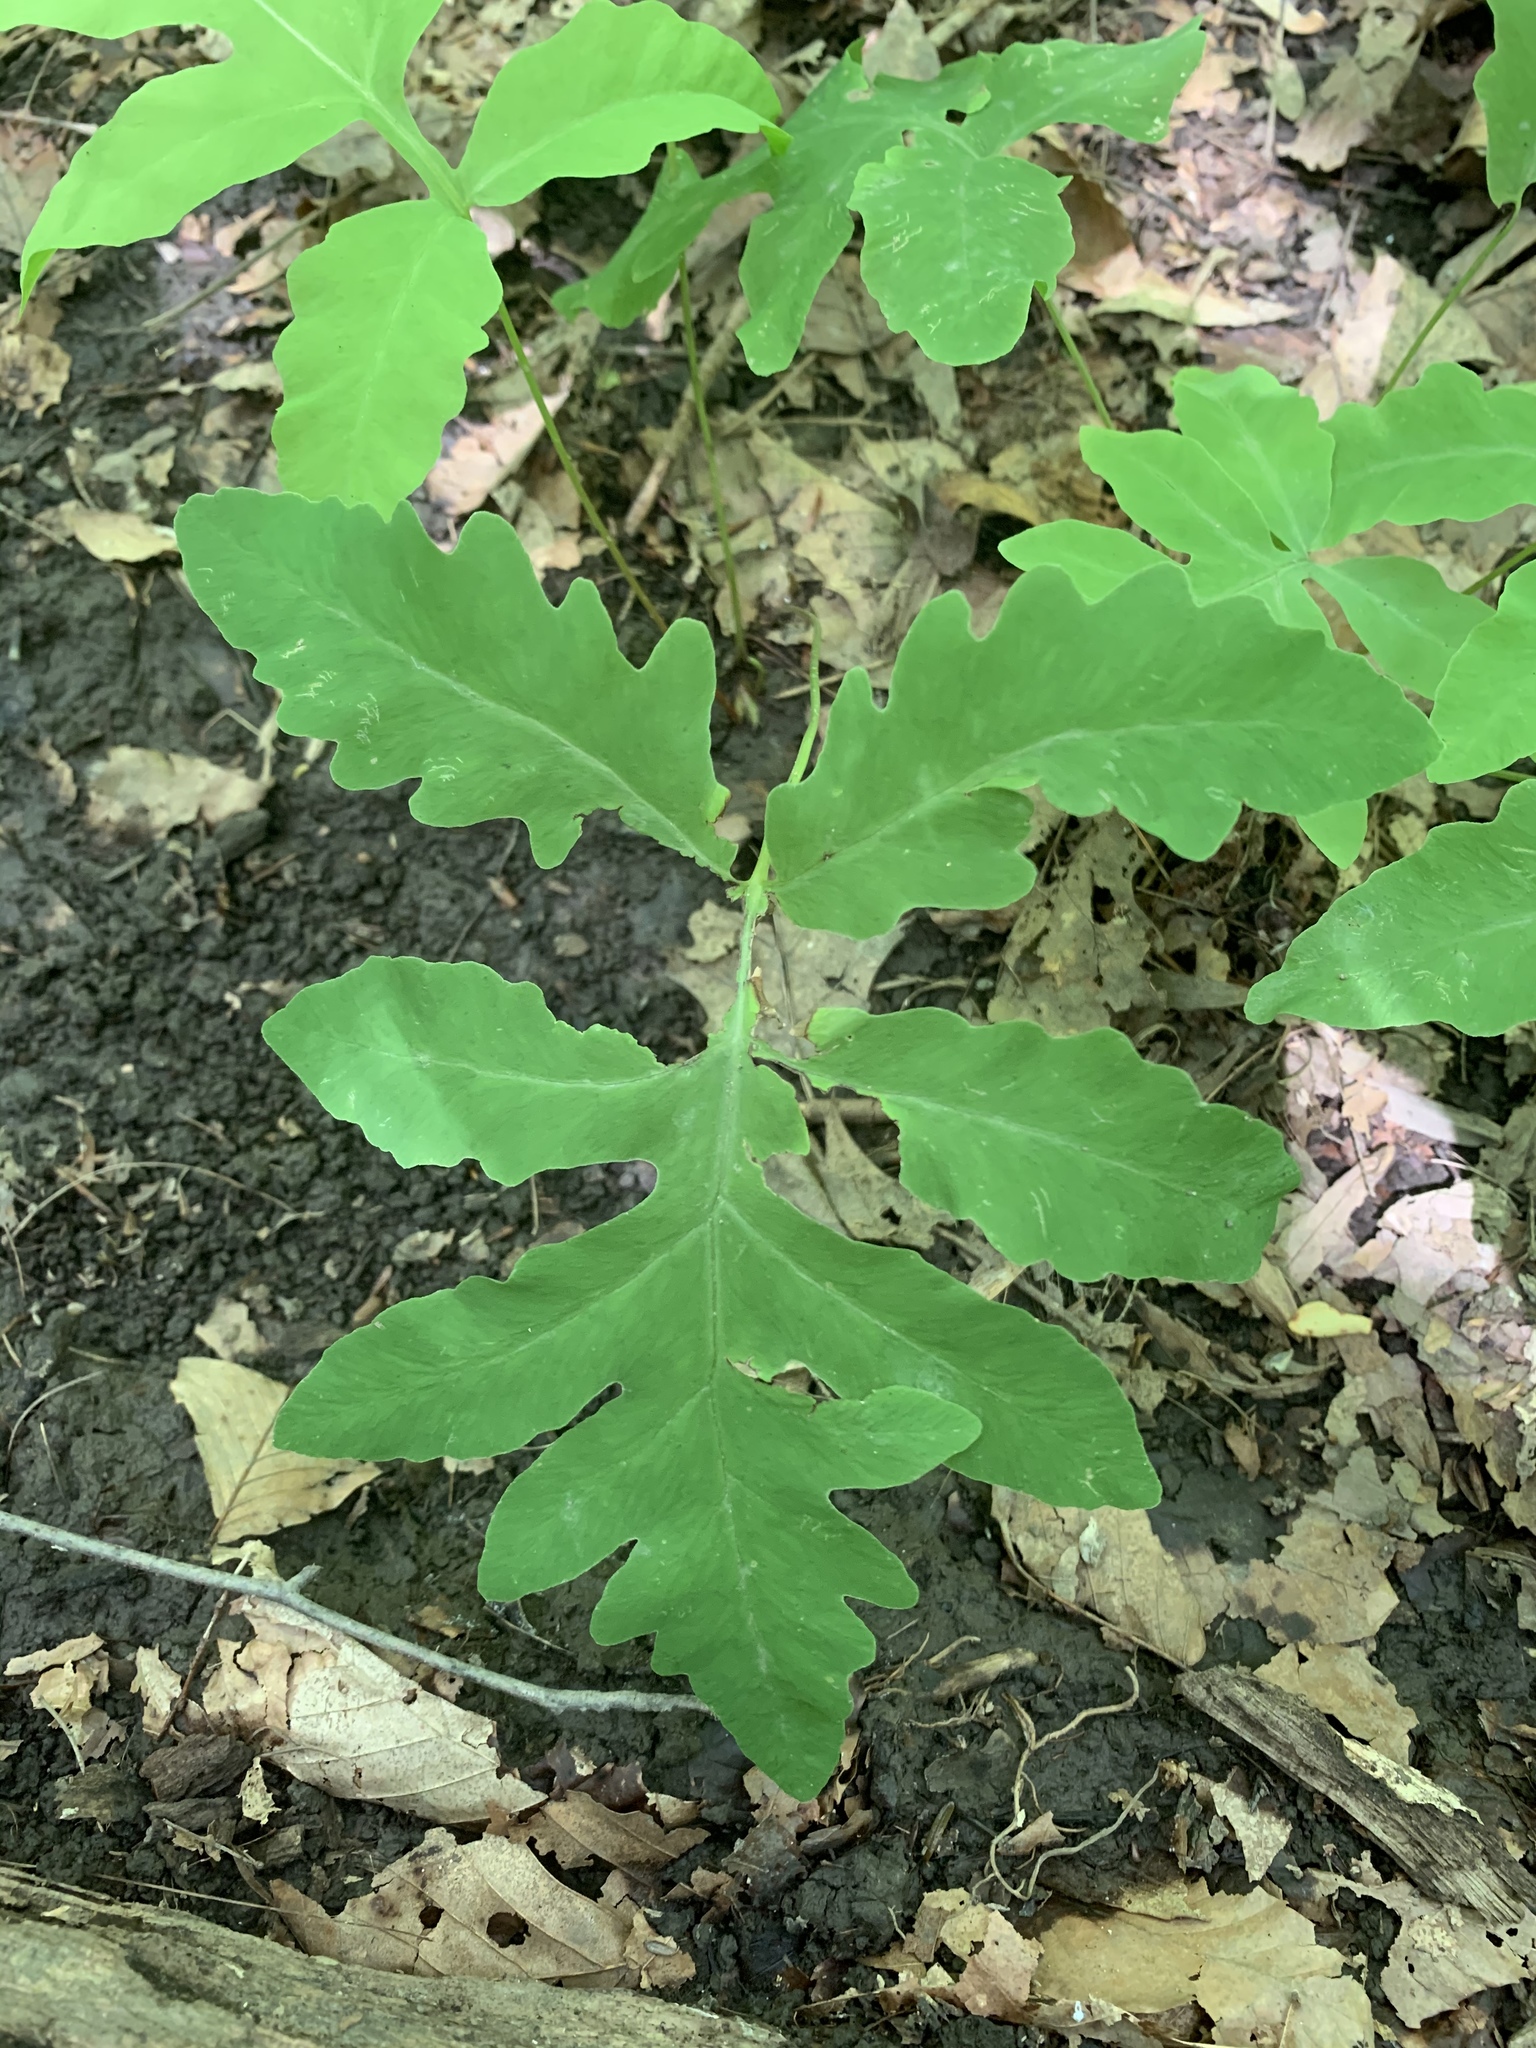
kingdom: Plantae
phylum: Tracheophyta
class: Polypodiopsida
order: Polypodiales
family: Onocleaceae
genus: Onoclea
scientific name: Onoclea sensibilis
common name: Sensitive fern
